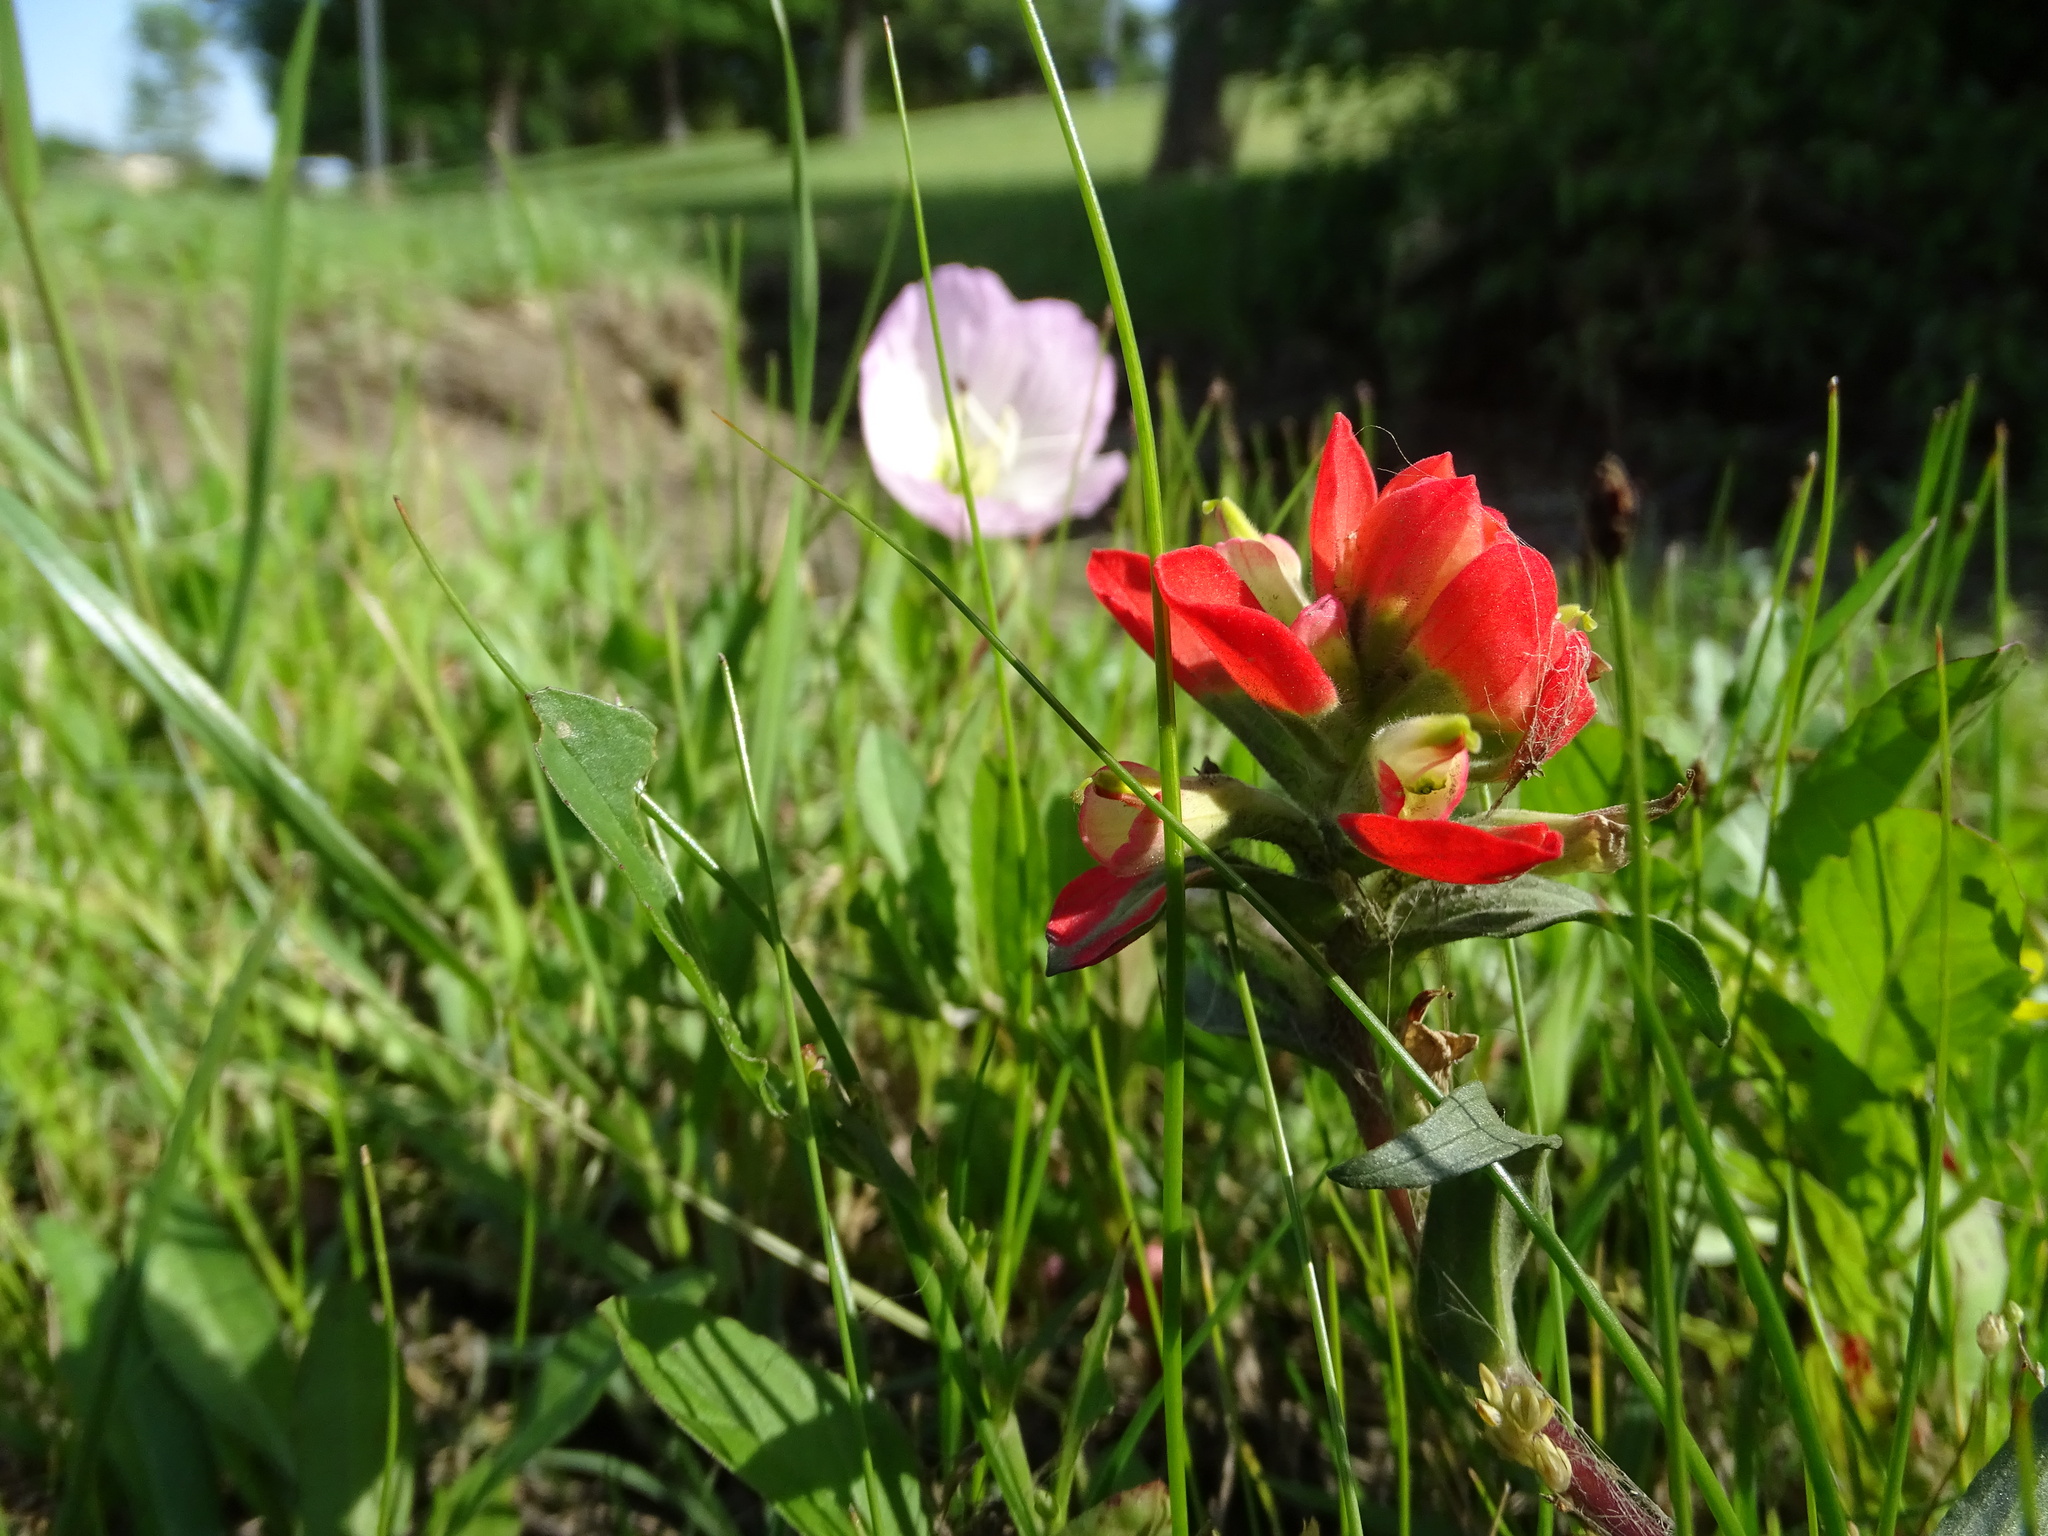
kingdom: Plantae
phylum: Tracheophyta
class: Magnoliopsida
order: Lamiales
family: Orobanchaceae
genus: Castilleja
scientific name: Castilleja indivisa
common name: Texas paintbrush
